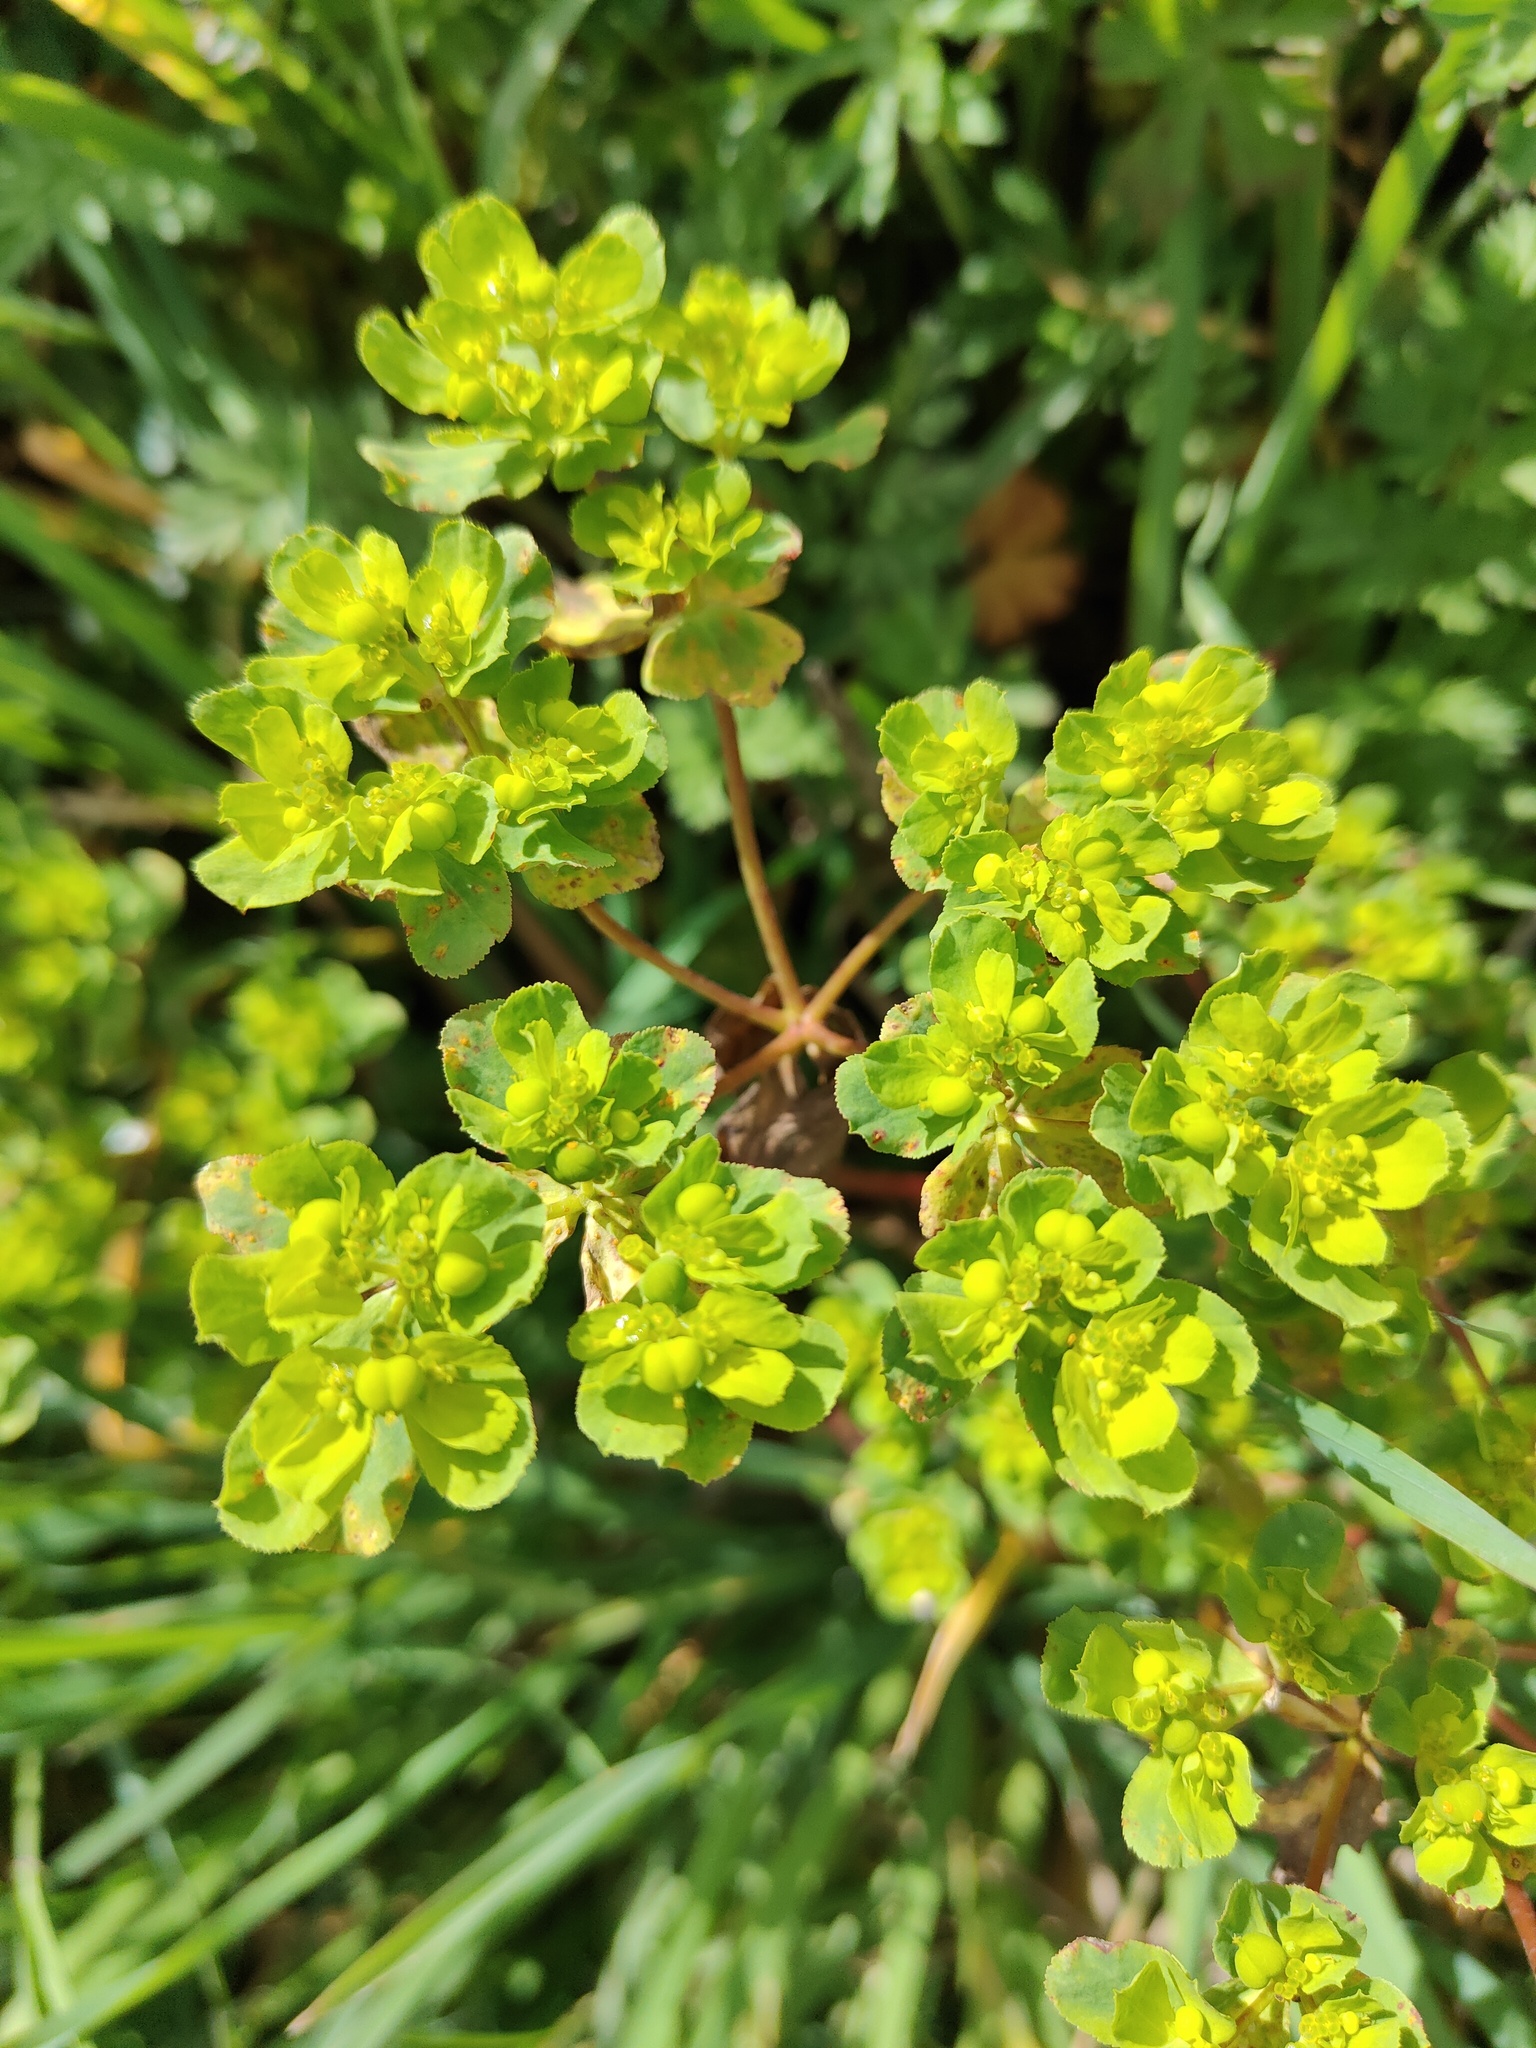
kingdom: Plantae
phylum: Tracheophyta
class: Magnoliopsida
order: Malpighiales
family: Euphorbiaceae
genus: Euphorbia
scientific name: Euphorbia helioscopia
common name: Sun spurge
